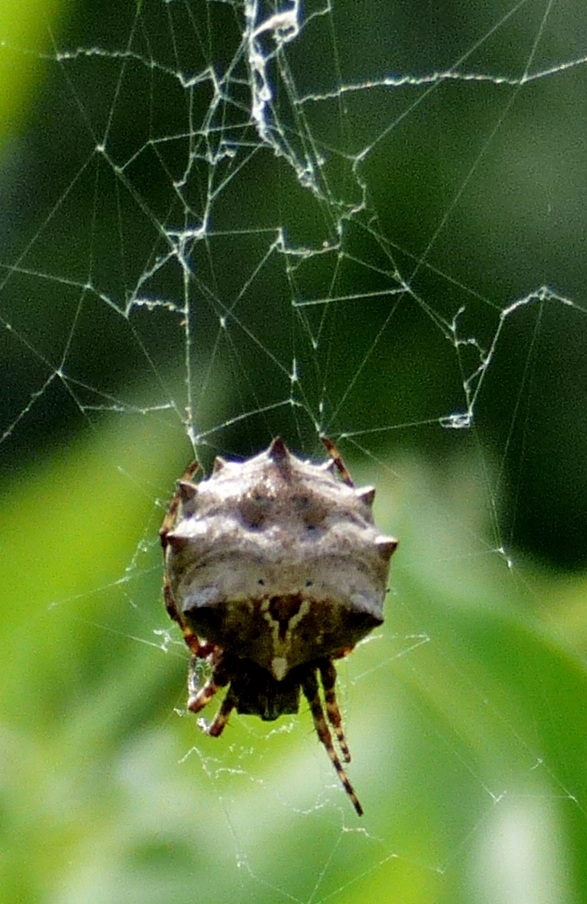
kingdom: Animalia
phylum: Arthropoda
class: Arachnida
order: Araneae
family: Araneidae
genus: Acanthepeira
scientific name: Acanthepeira stellata
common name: Starbellied orbweaver
